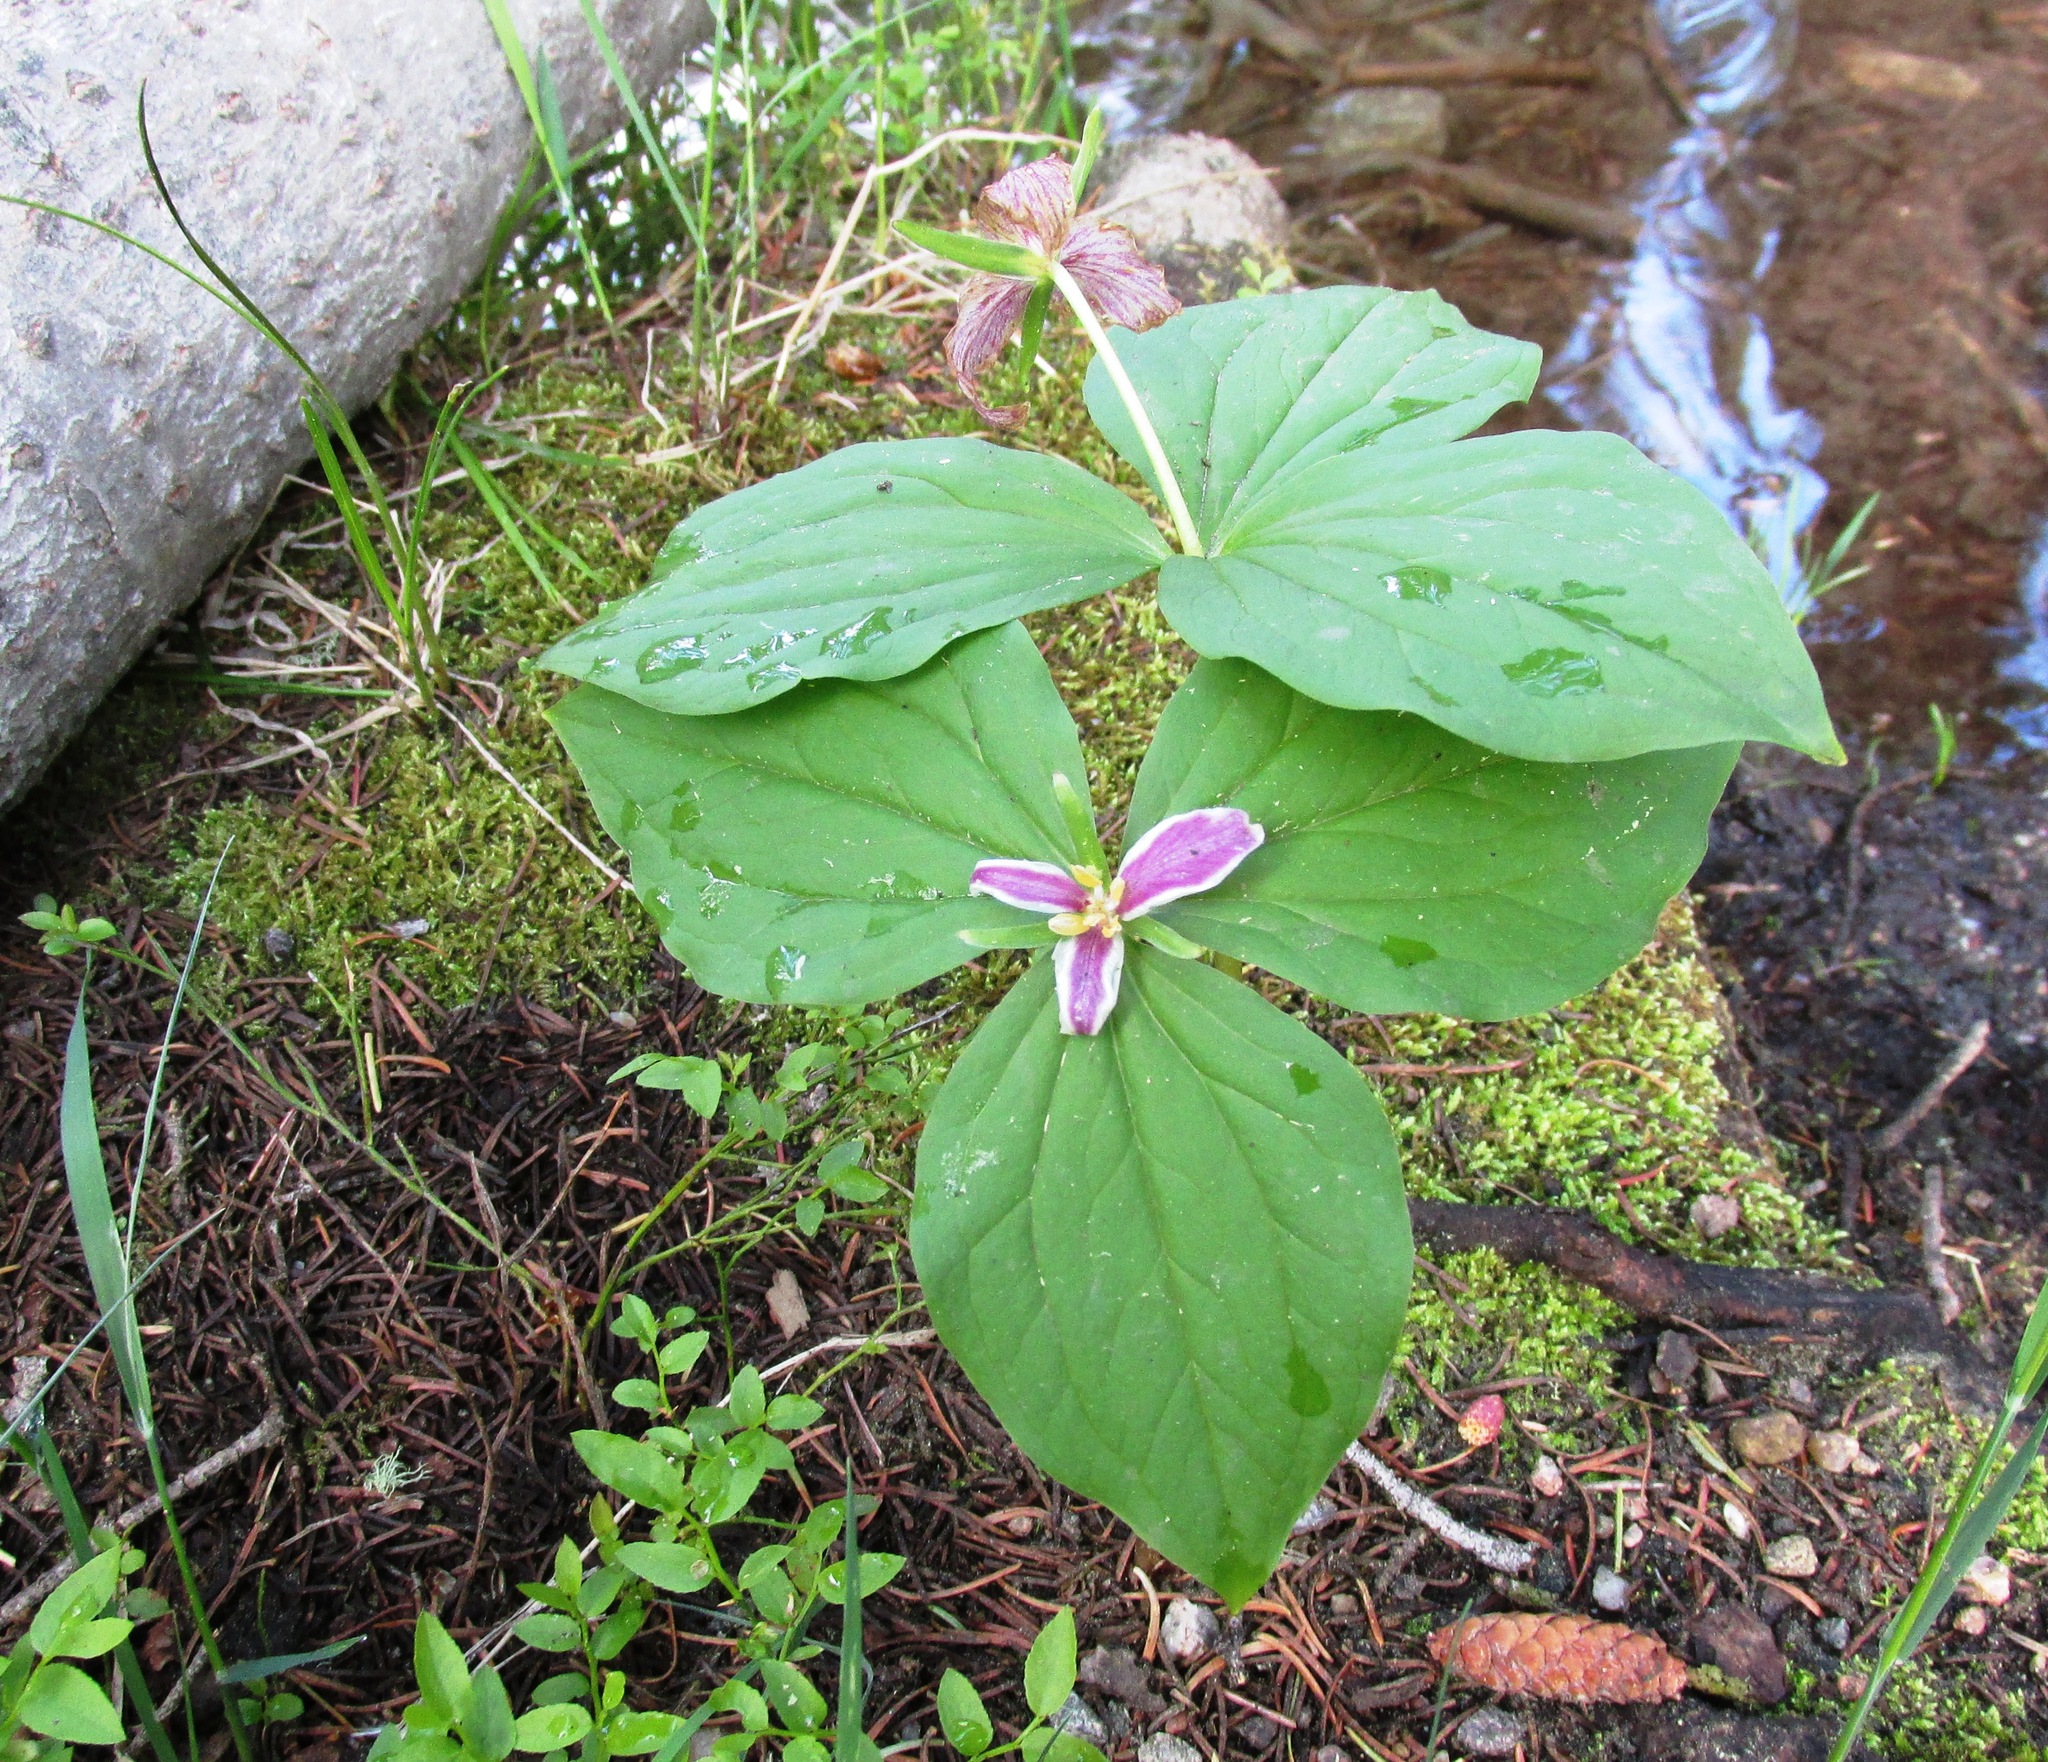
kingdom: Plantae
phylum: Tracheophyta
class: Liliopsida
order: Liliales
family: Melanthiaceae
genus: Trillium
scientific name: Trillium ovatum
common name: Pacific trillium
